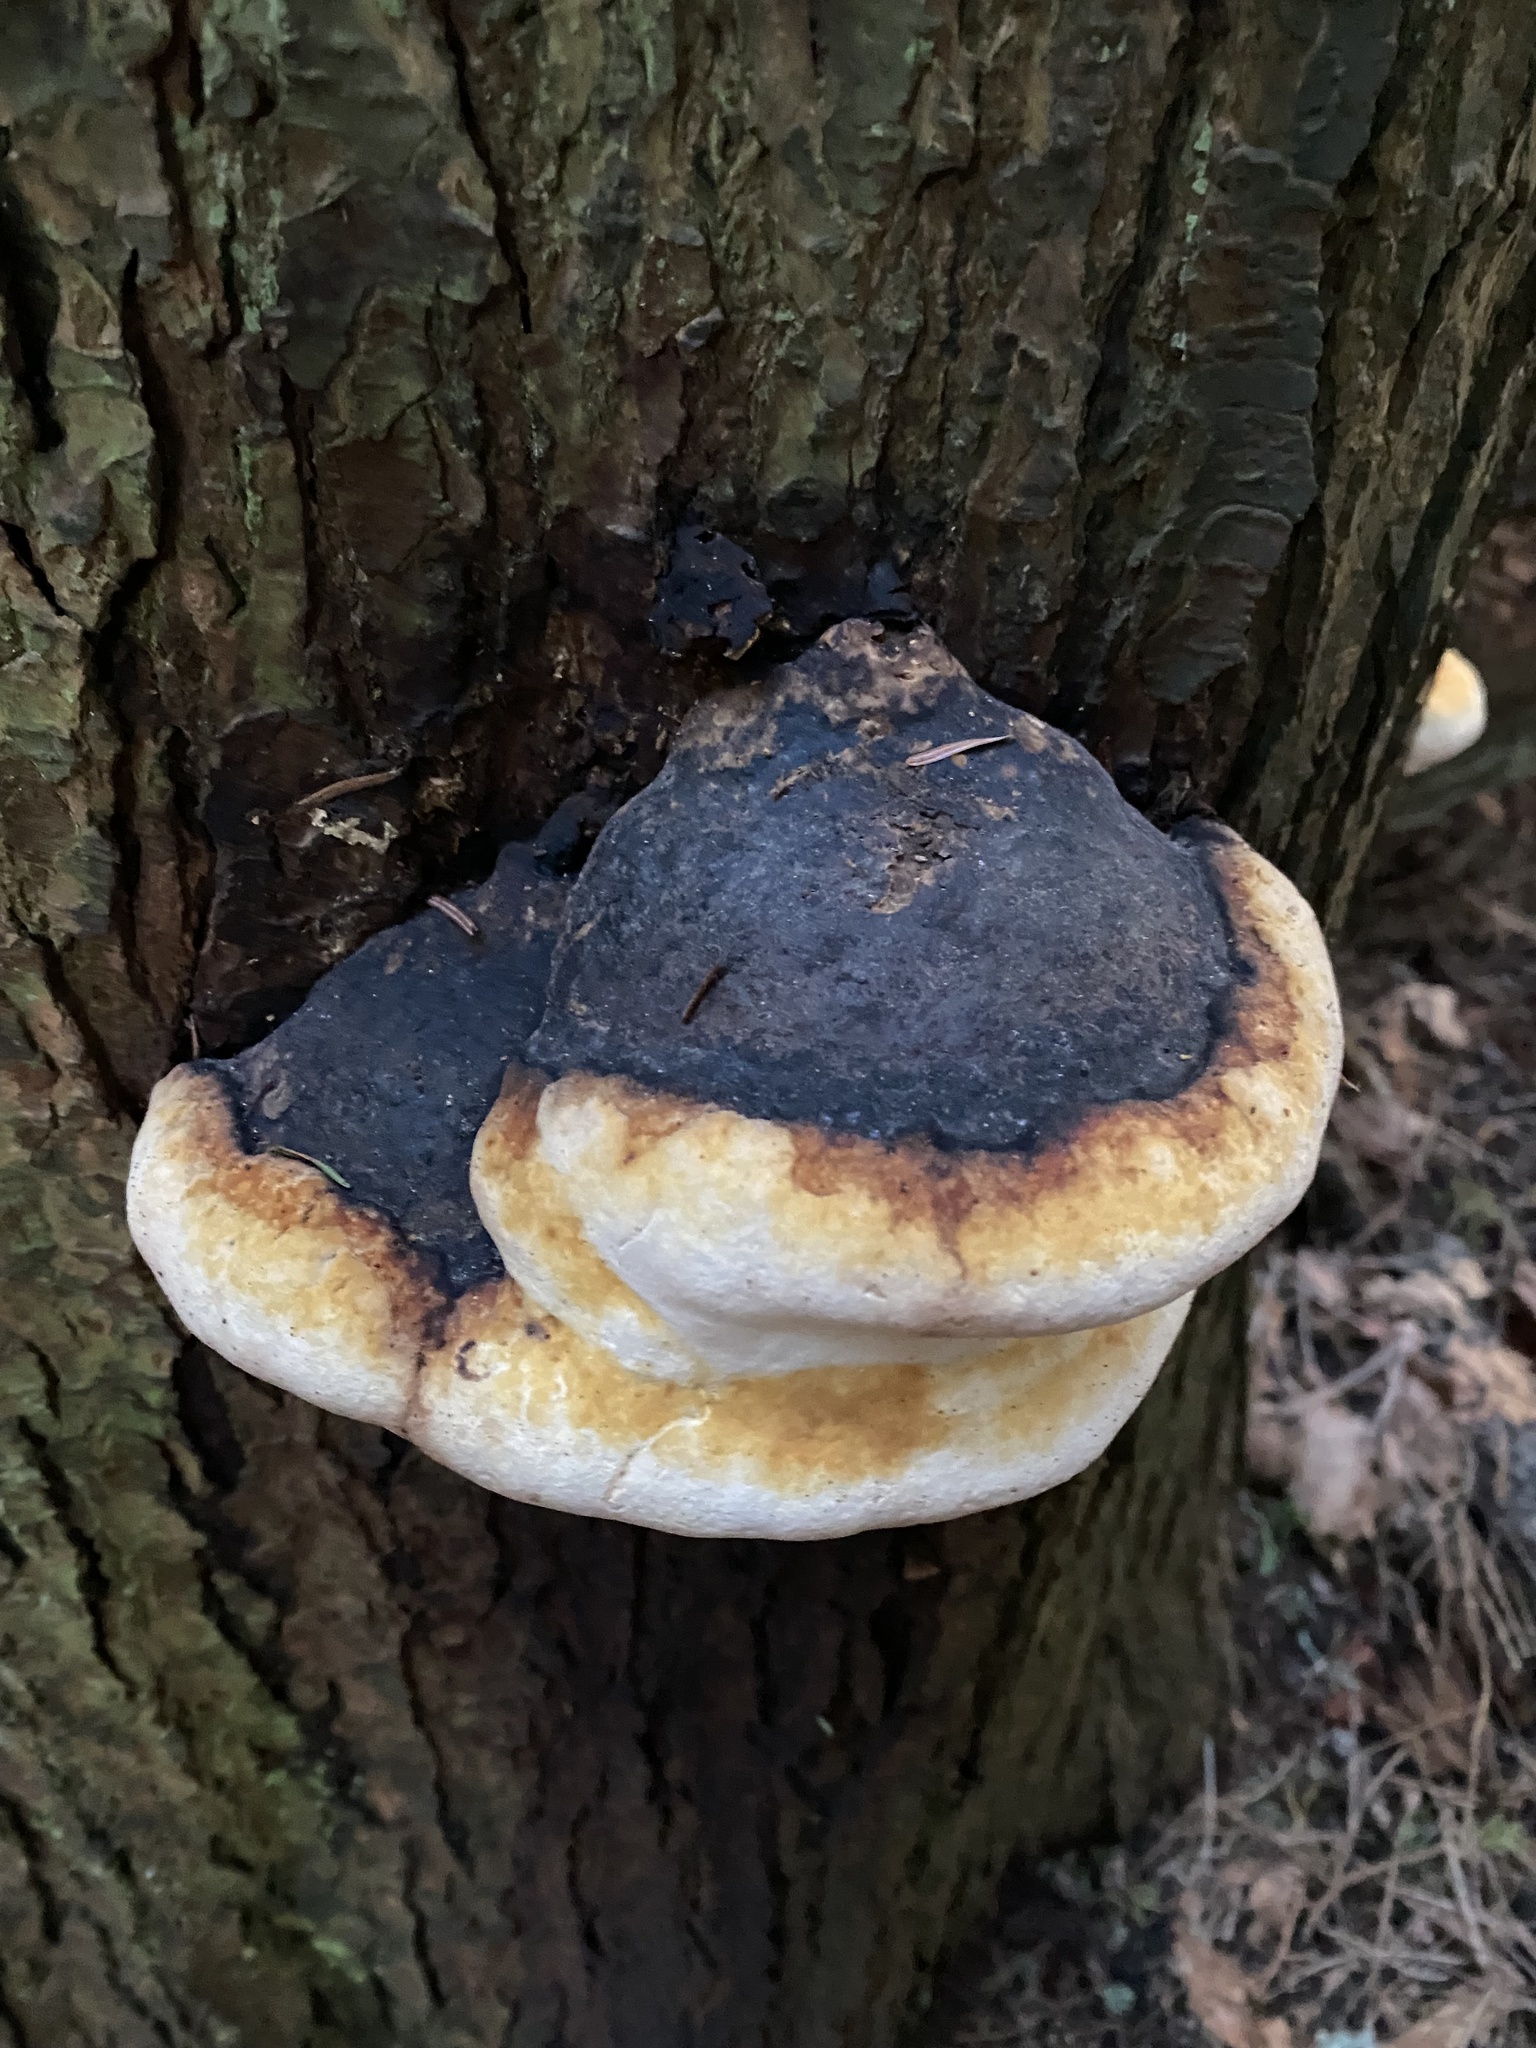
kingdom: Fungi
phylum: Basidiomycota
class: Agaricomycetes
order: Polyporales
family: Fomitopsidaceae
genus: Fomitopsis
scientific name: Fomitopsis mounceae
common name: Northern red belt
